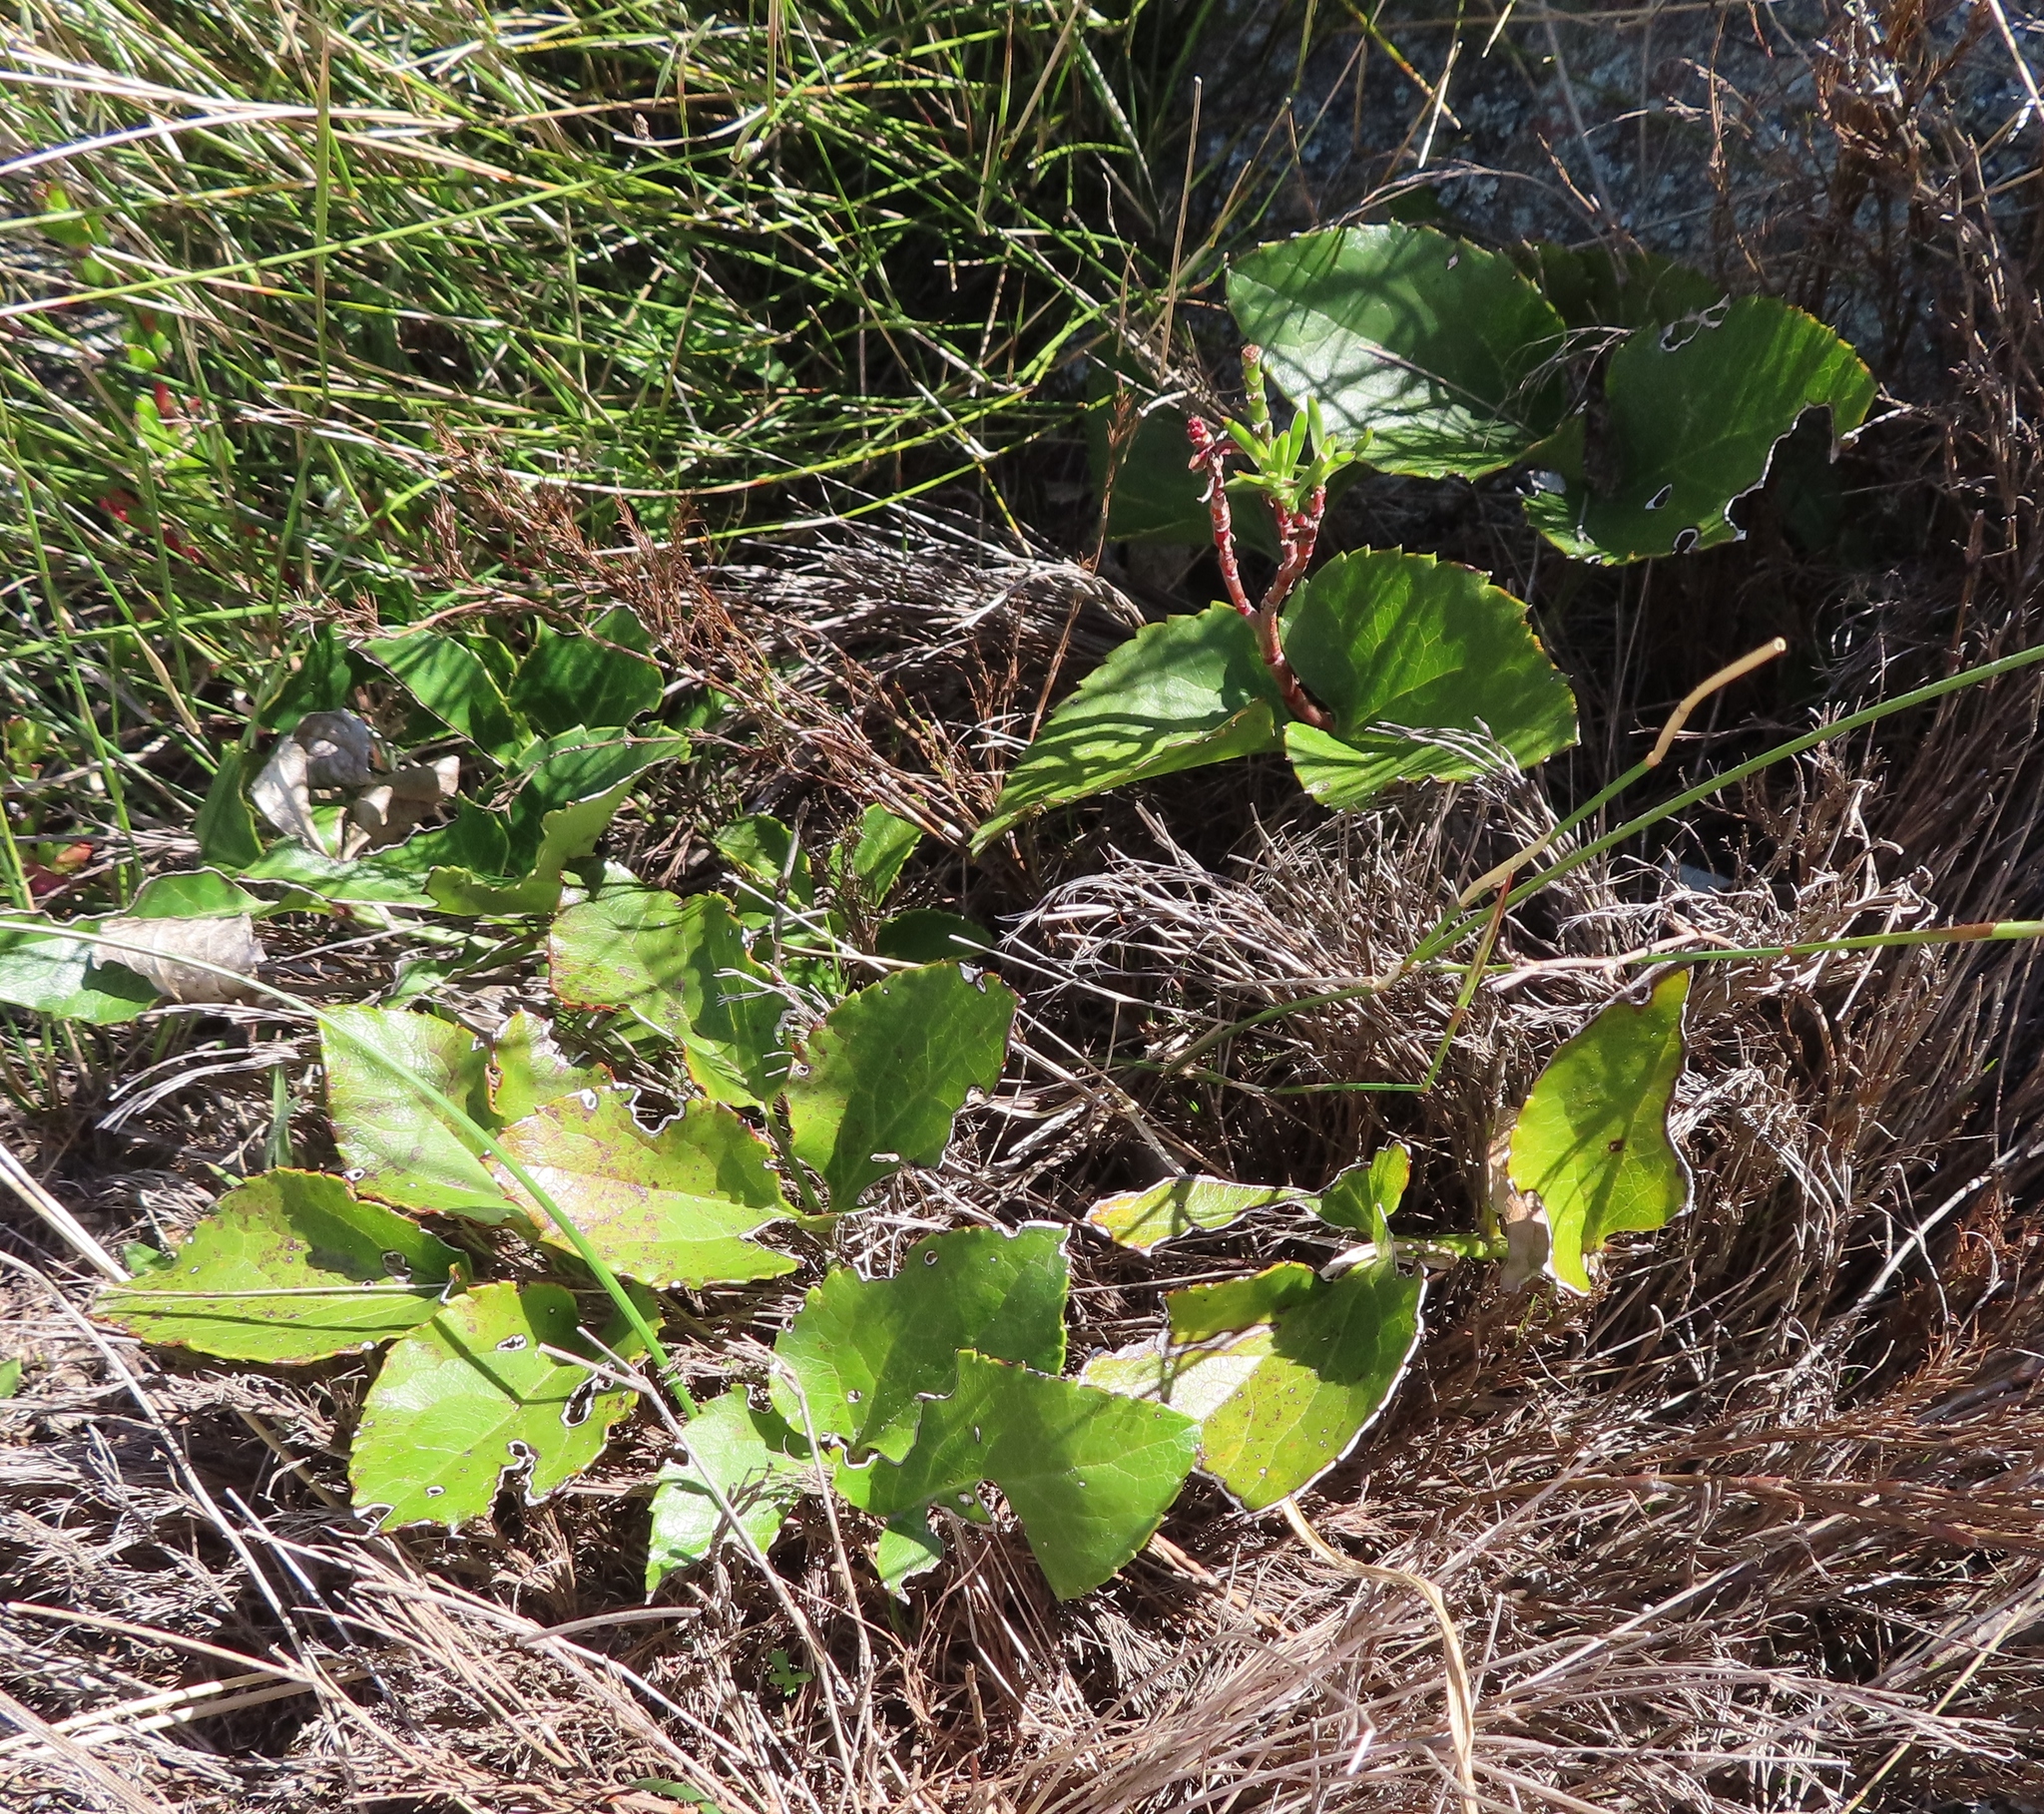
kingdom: Plantae
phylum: Tracheophyta
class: Magnoliopsida
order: Ranunculales
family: Ranunculaceae
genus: Knowltonia
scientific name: Knowltonia vesicatoria
